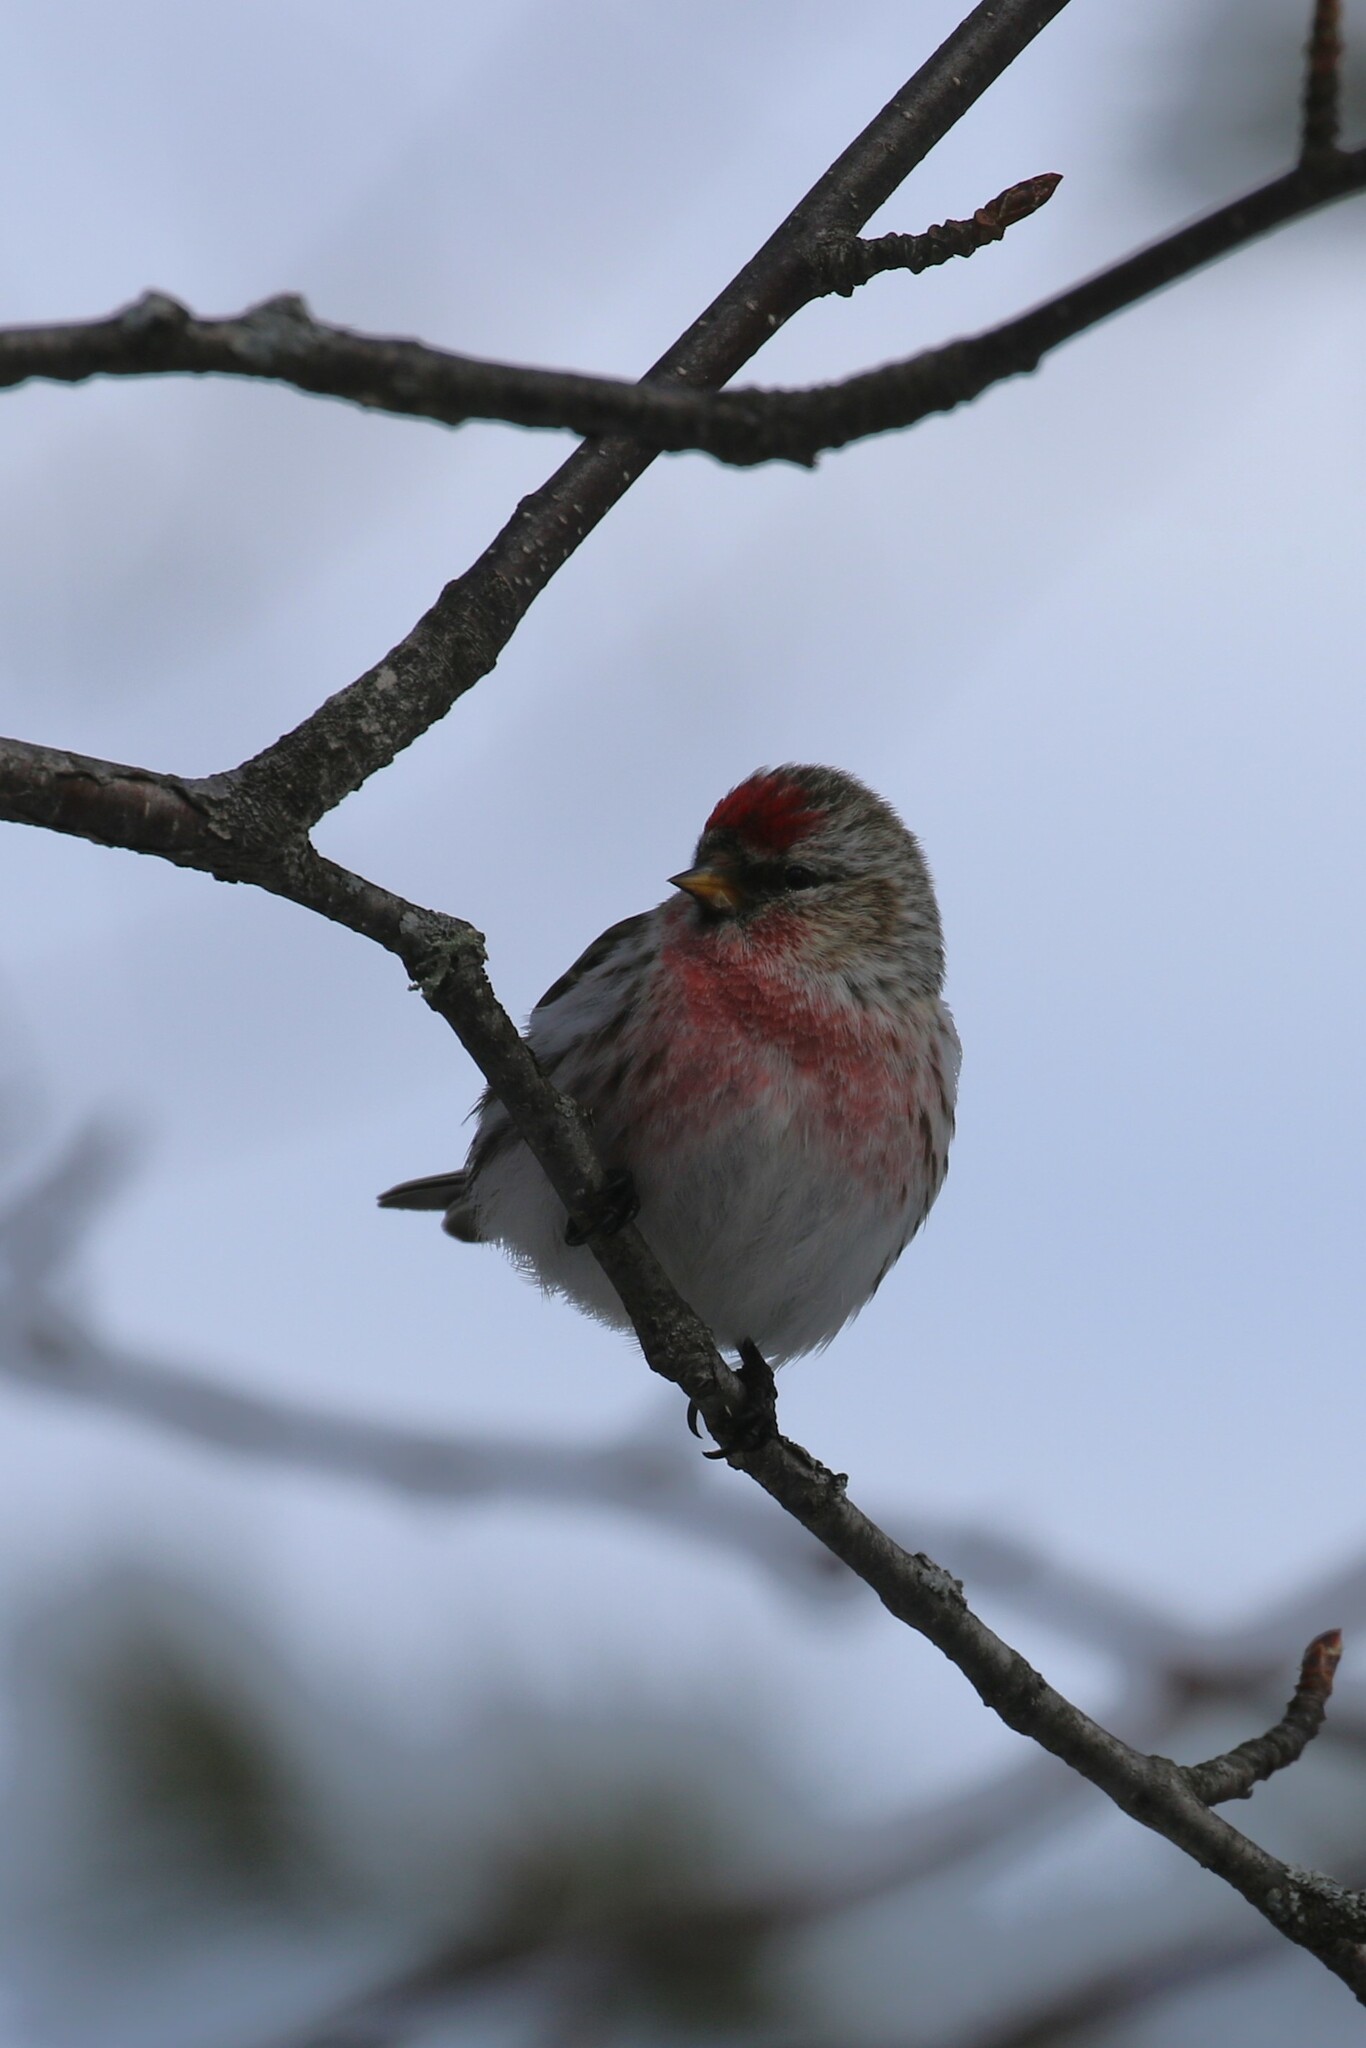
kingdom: Animalia
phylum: Chordata
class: Aves
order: Passeriformes
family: Fringillidae
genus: Acanthis
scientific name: Acanthis flammea
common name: Common redpoll
